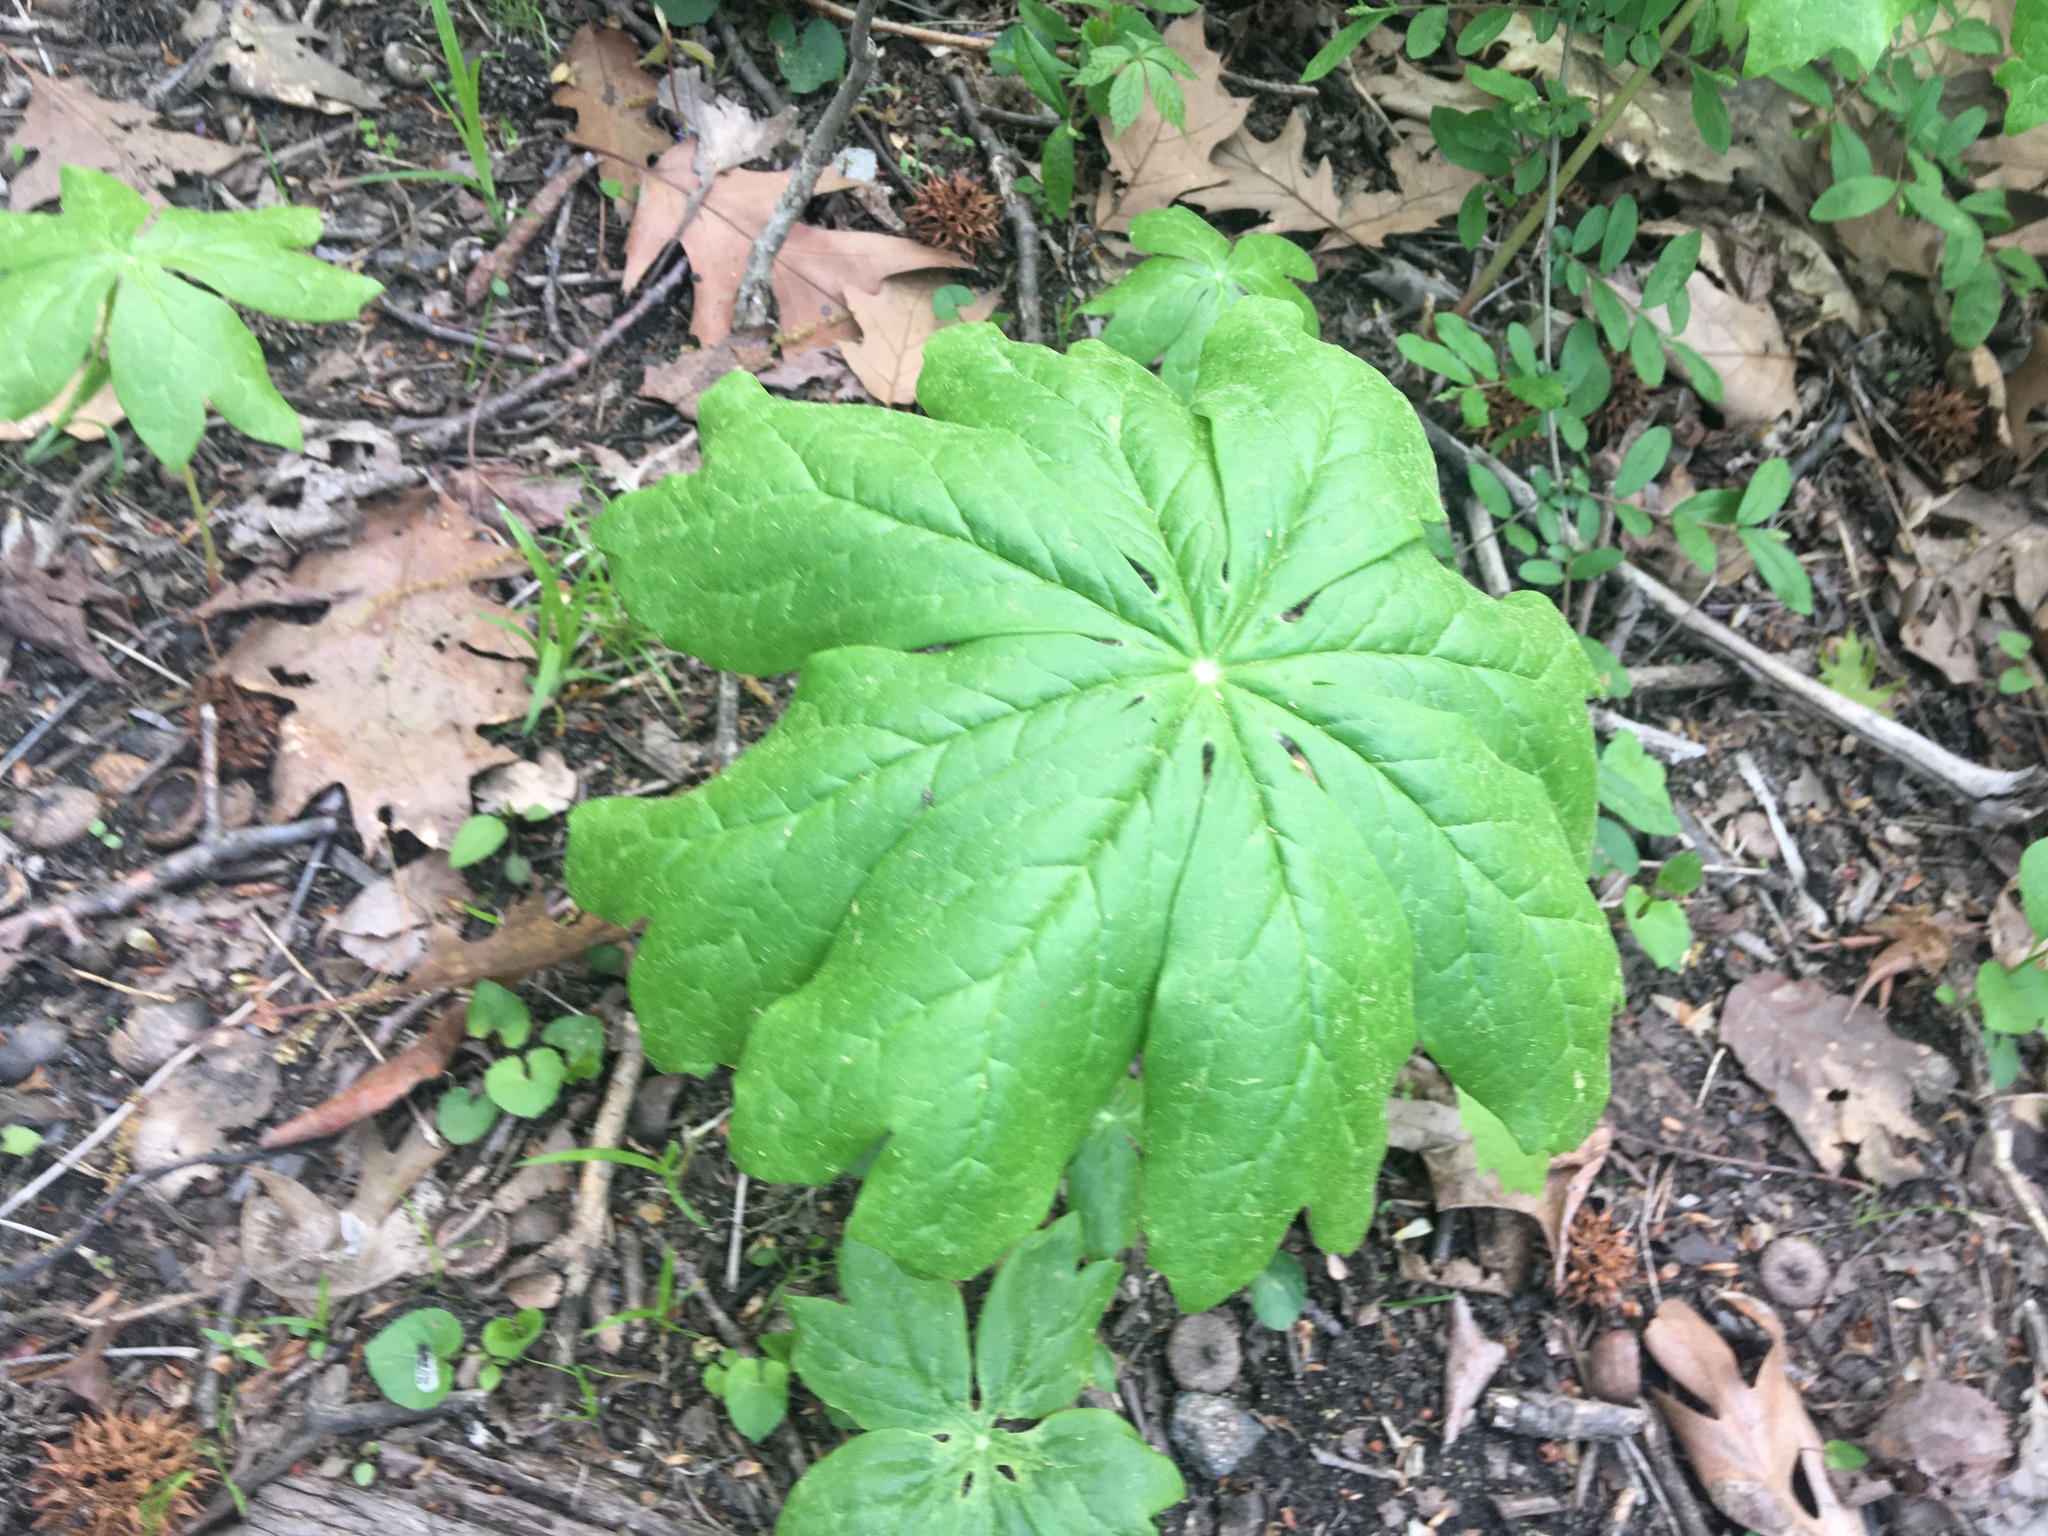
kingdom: Plantae
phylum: Tracheophyta
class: Magnoliopsida
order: Ranunculales
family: Berberidaceae
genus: Podophyllum
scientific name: Podophyllum peltatum
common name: Wild mandrake
